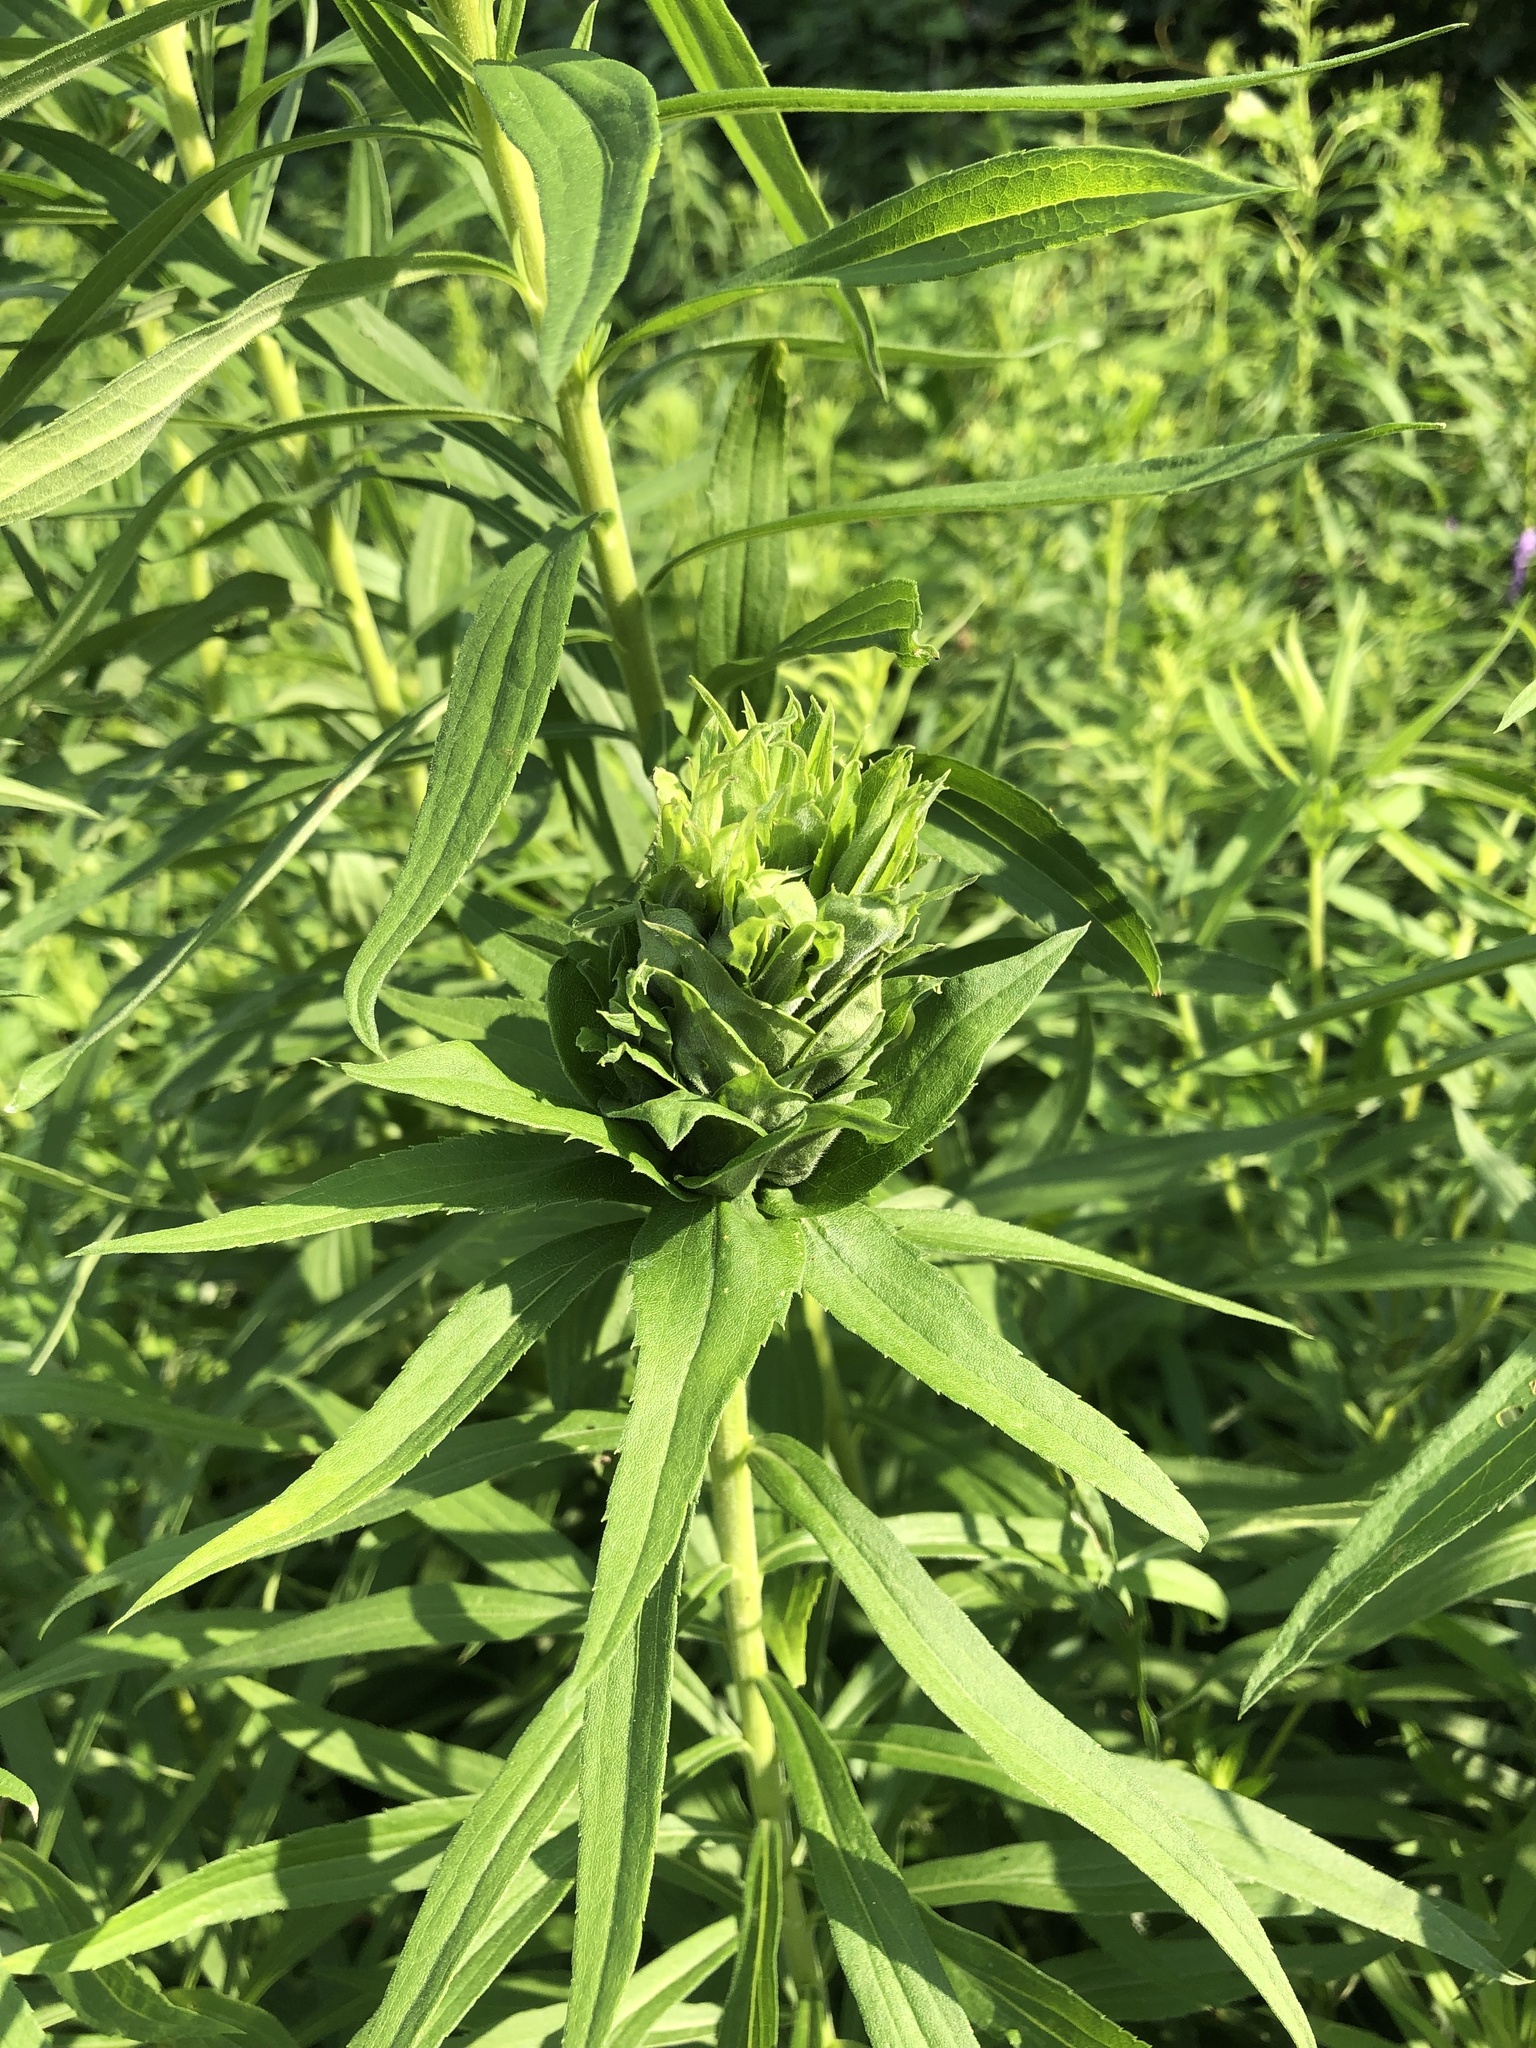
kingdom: Animalia
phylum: Arthropoda
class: Insecta
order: Diptera
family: Cecidomyiidae
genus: Rhopalomyia
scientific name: Rhopalomyia solidaginis
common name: Goldenrod bunch gall midge
